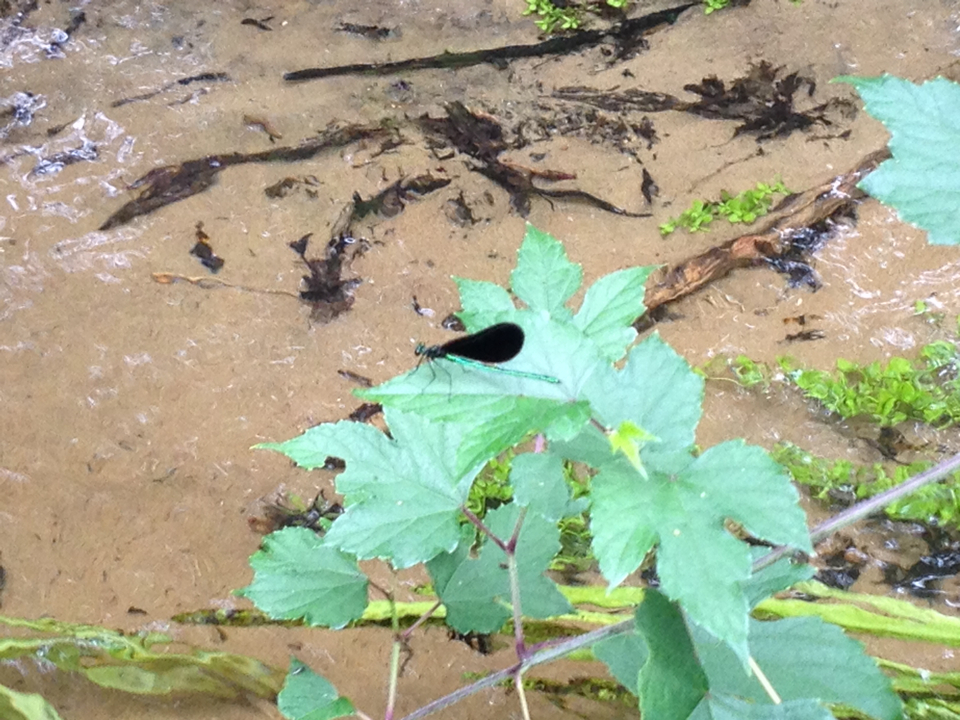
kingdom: Animalia
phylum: Arthropoda
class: Insecta
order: Odonata
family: Calopterygidae
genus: Calopteryx
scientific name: Calopteryx maculata
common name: Ebony jewelwing
